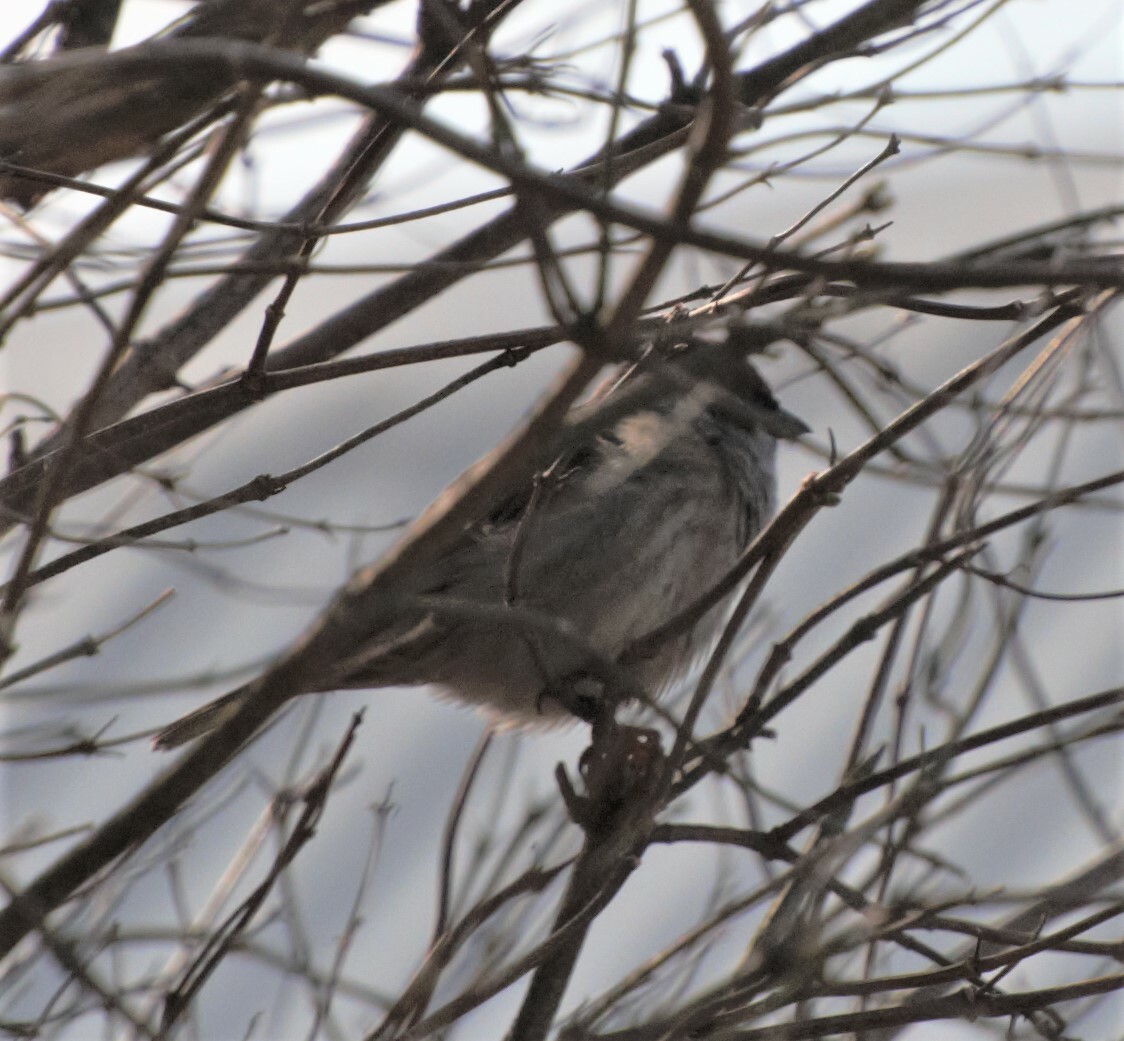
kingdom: Animalia
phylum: Chordata
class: Aves
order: Passeriformes
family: Passeridae
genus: Passer
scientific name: Passer montanus
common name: Eurasian tree sparrow
